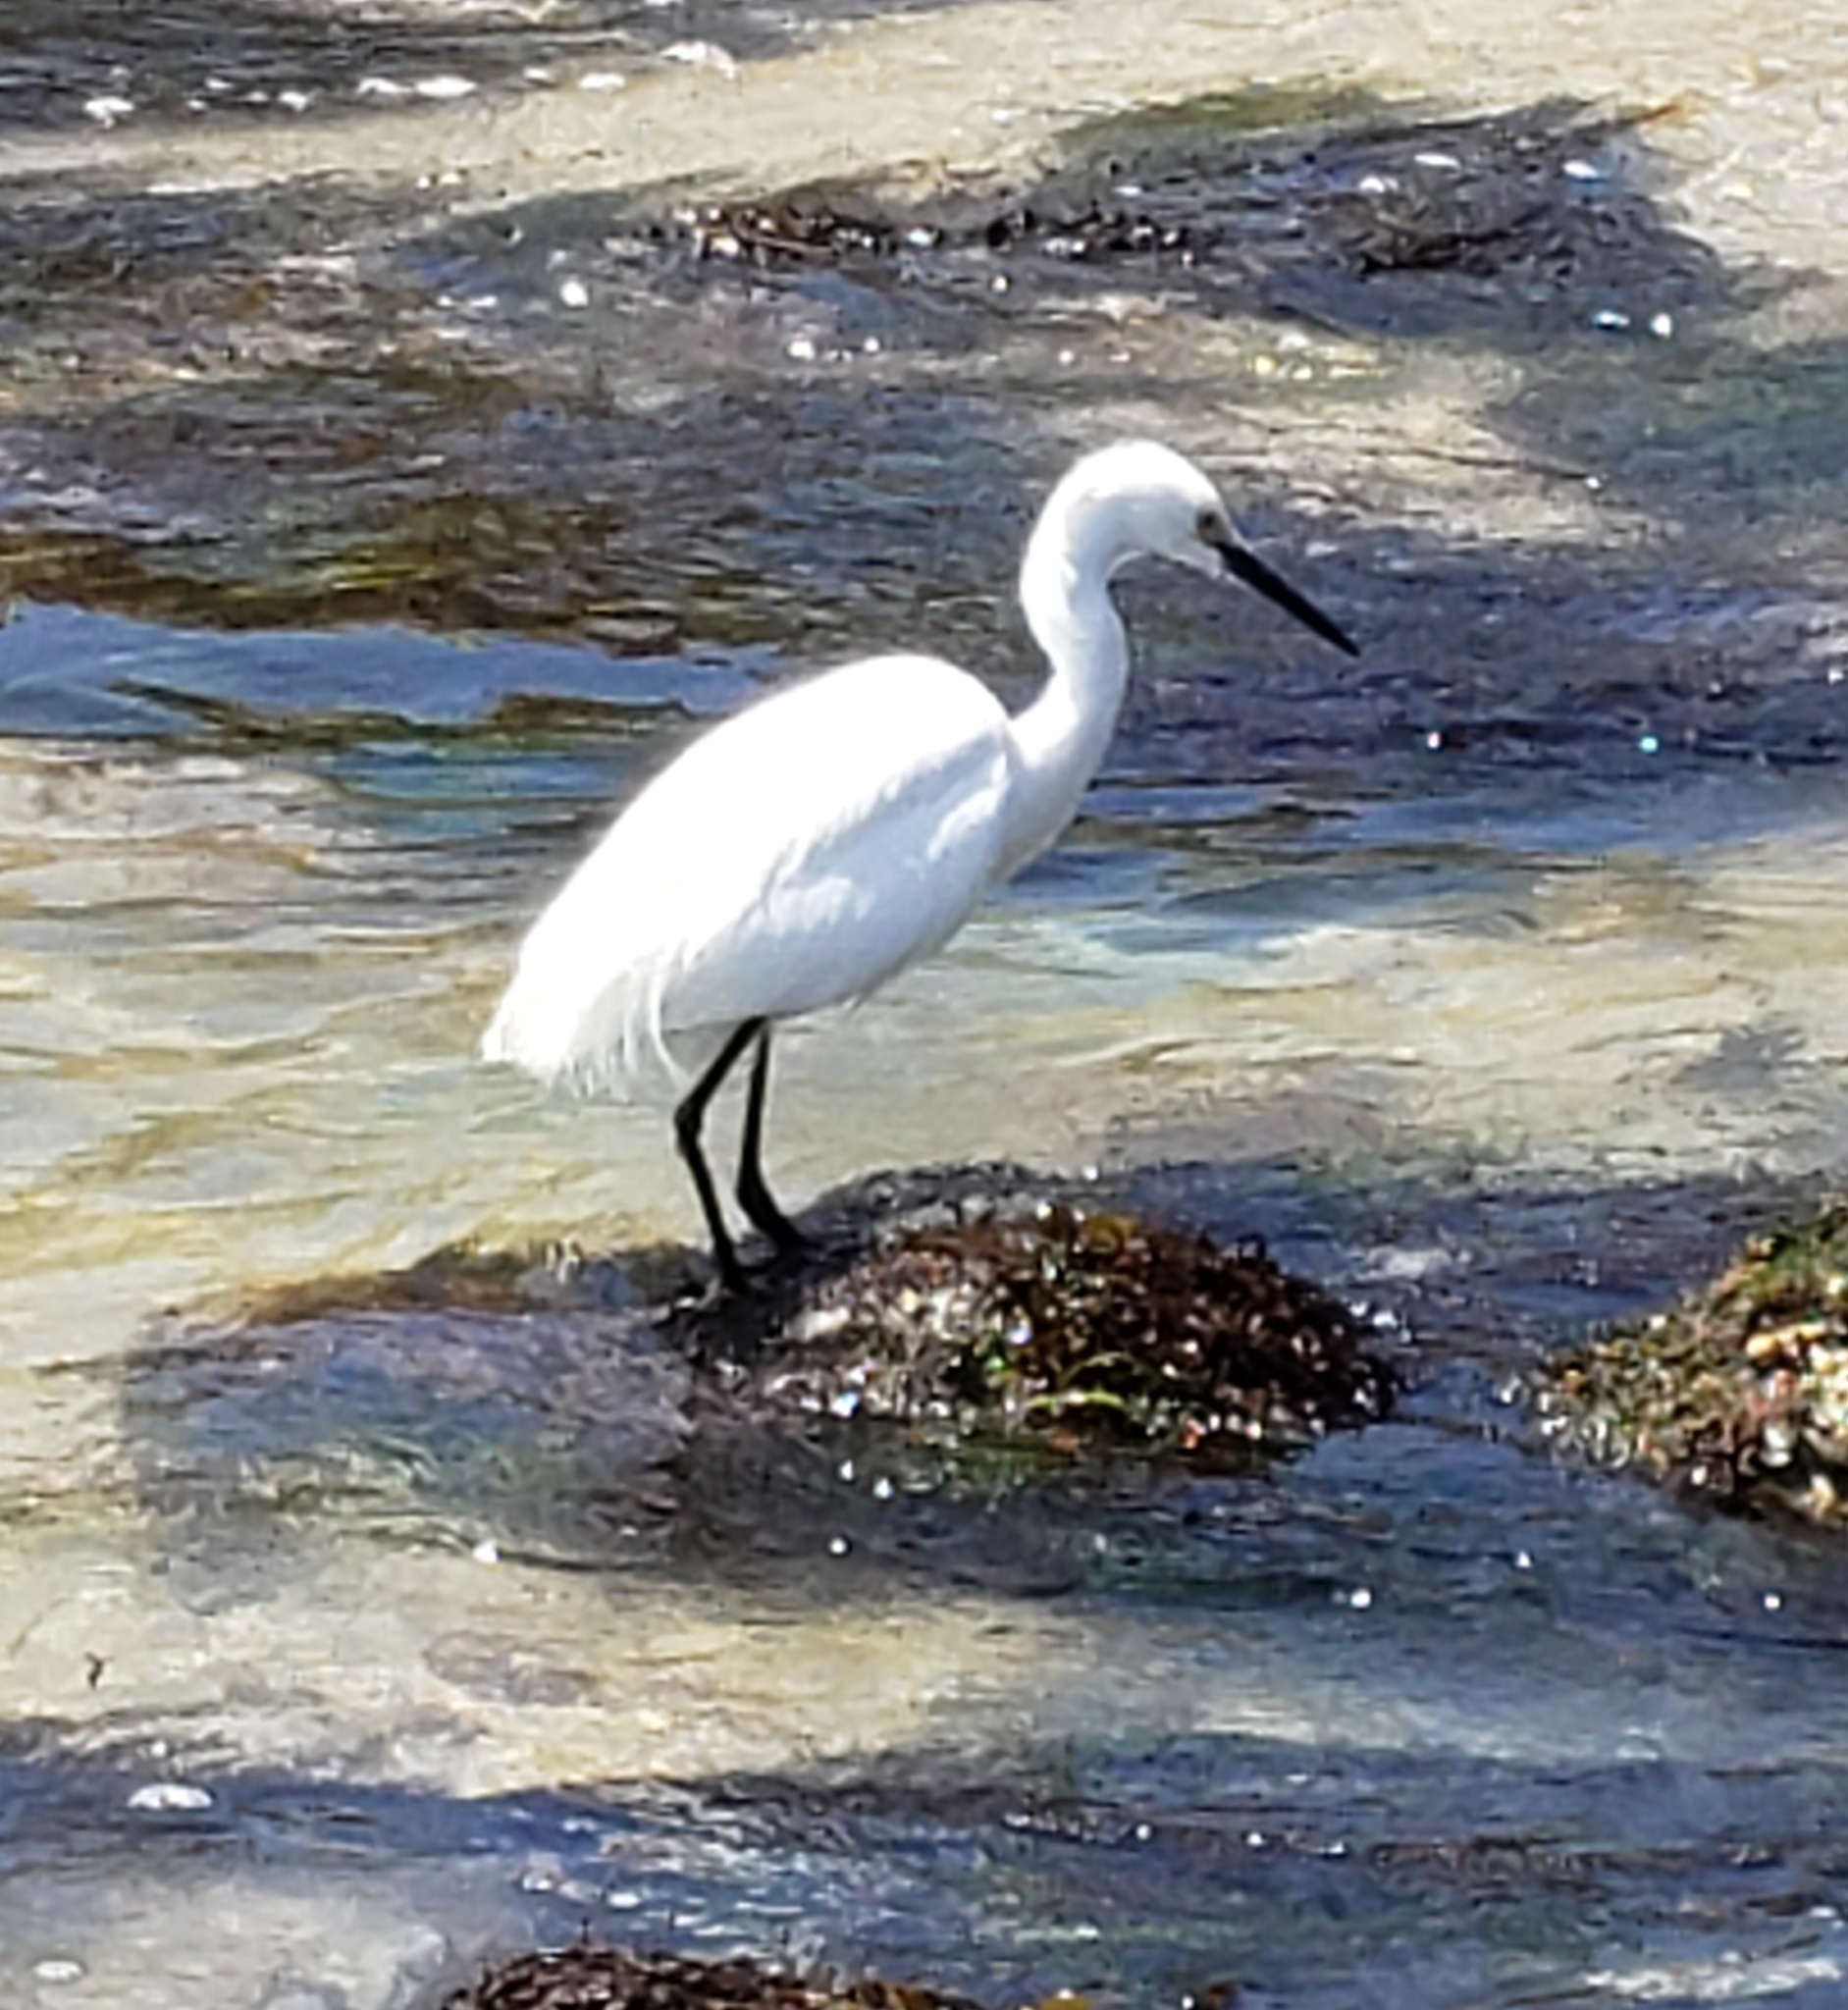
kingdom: Animalia
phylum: Chordata
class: Aves
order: Pelecaniformes
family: Ardeidae
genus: Egretta
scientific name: Egretta thula
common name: Snowy egret
